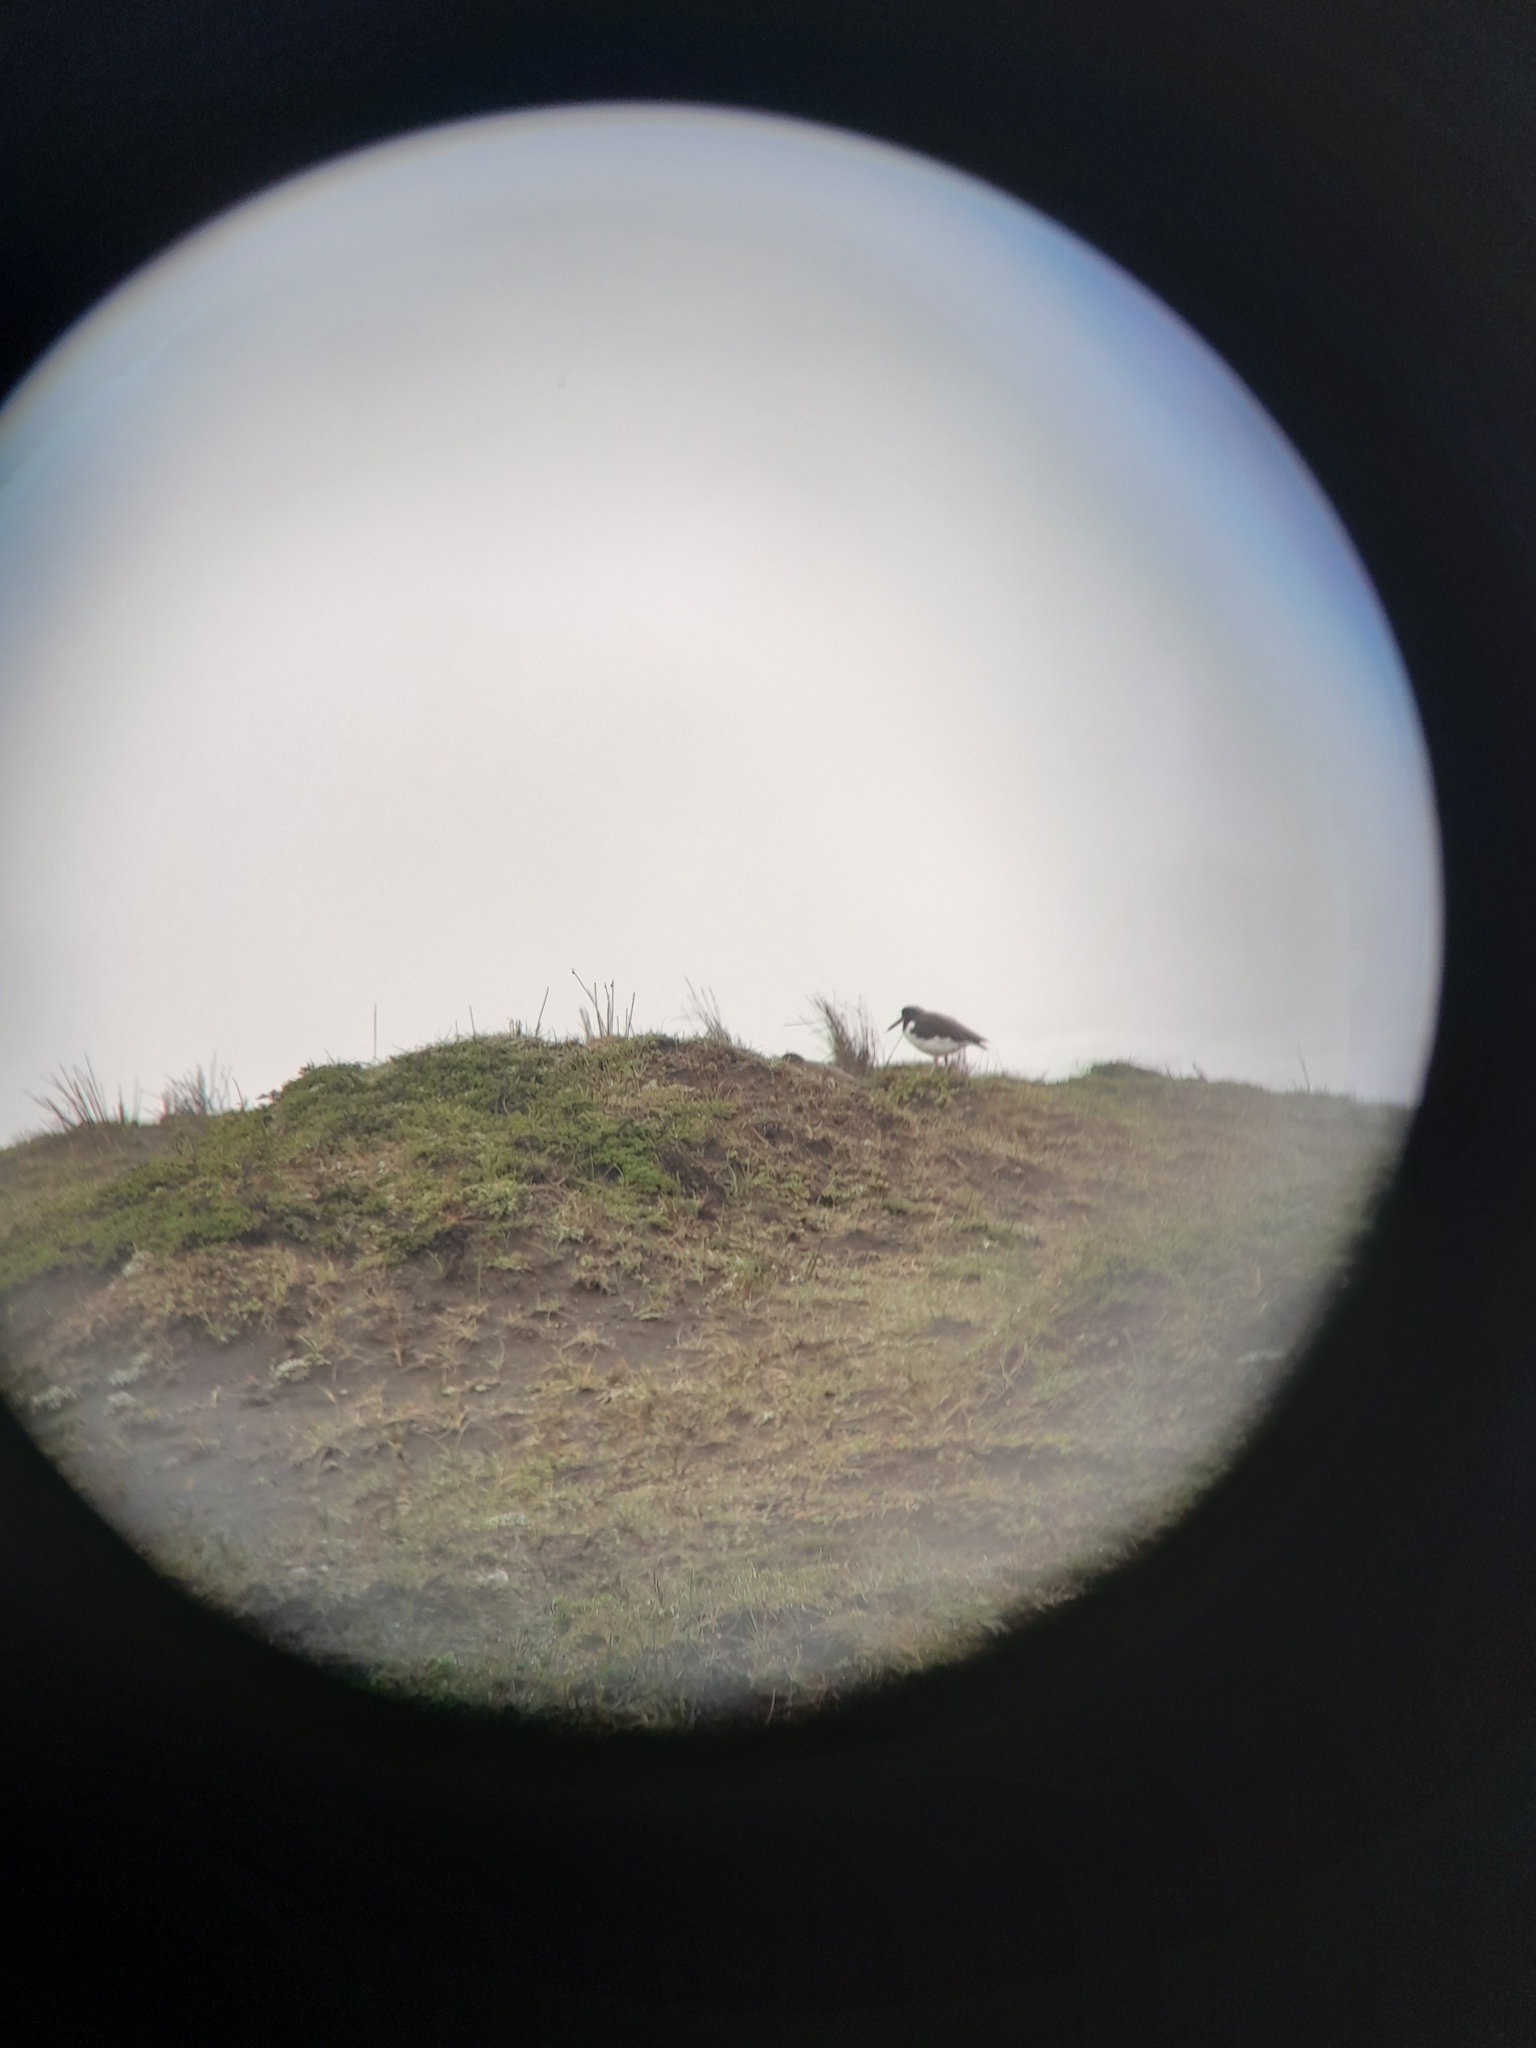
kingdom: Animalia
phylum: Chordata
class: Aves
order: Charadriiformes
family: Haematopodidae
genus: Haematopus
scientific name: Haematopus palliatus
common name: American oystercatcher
